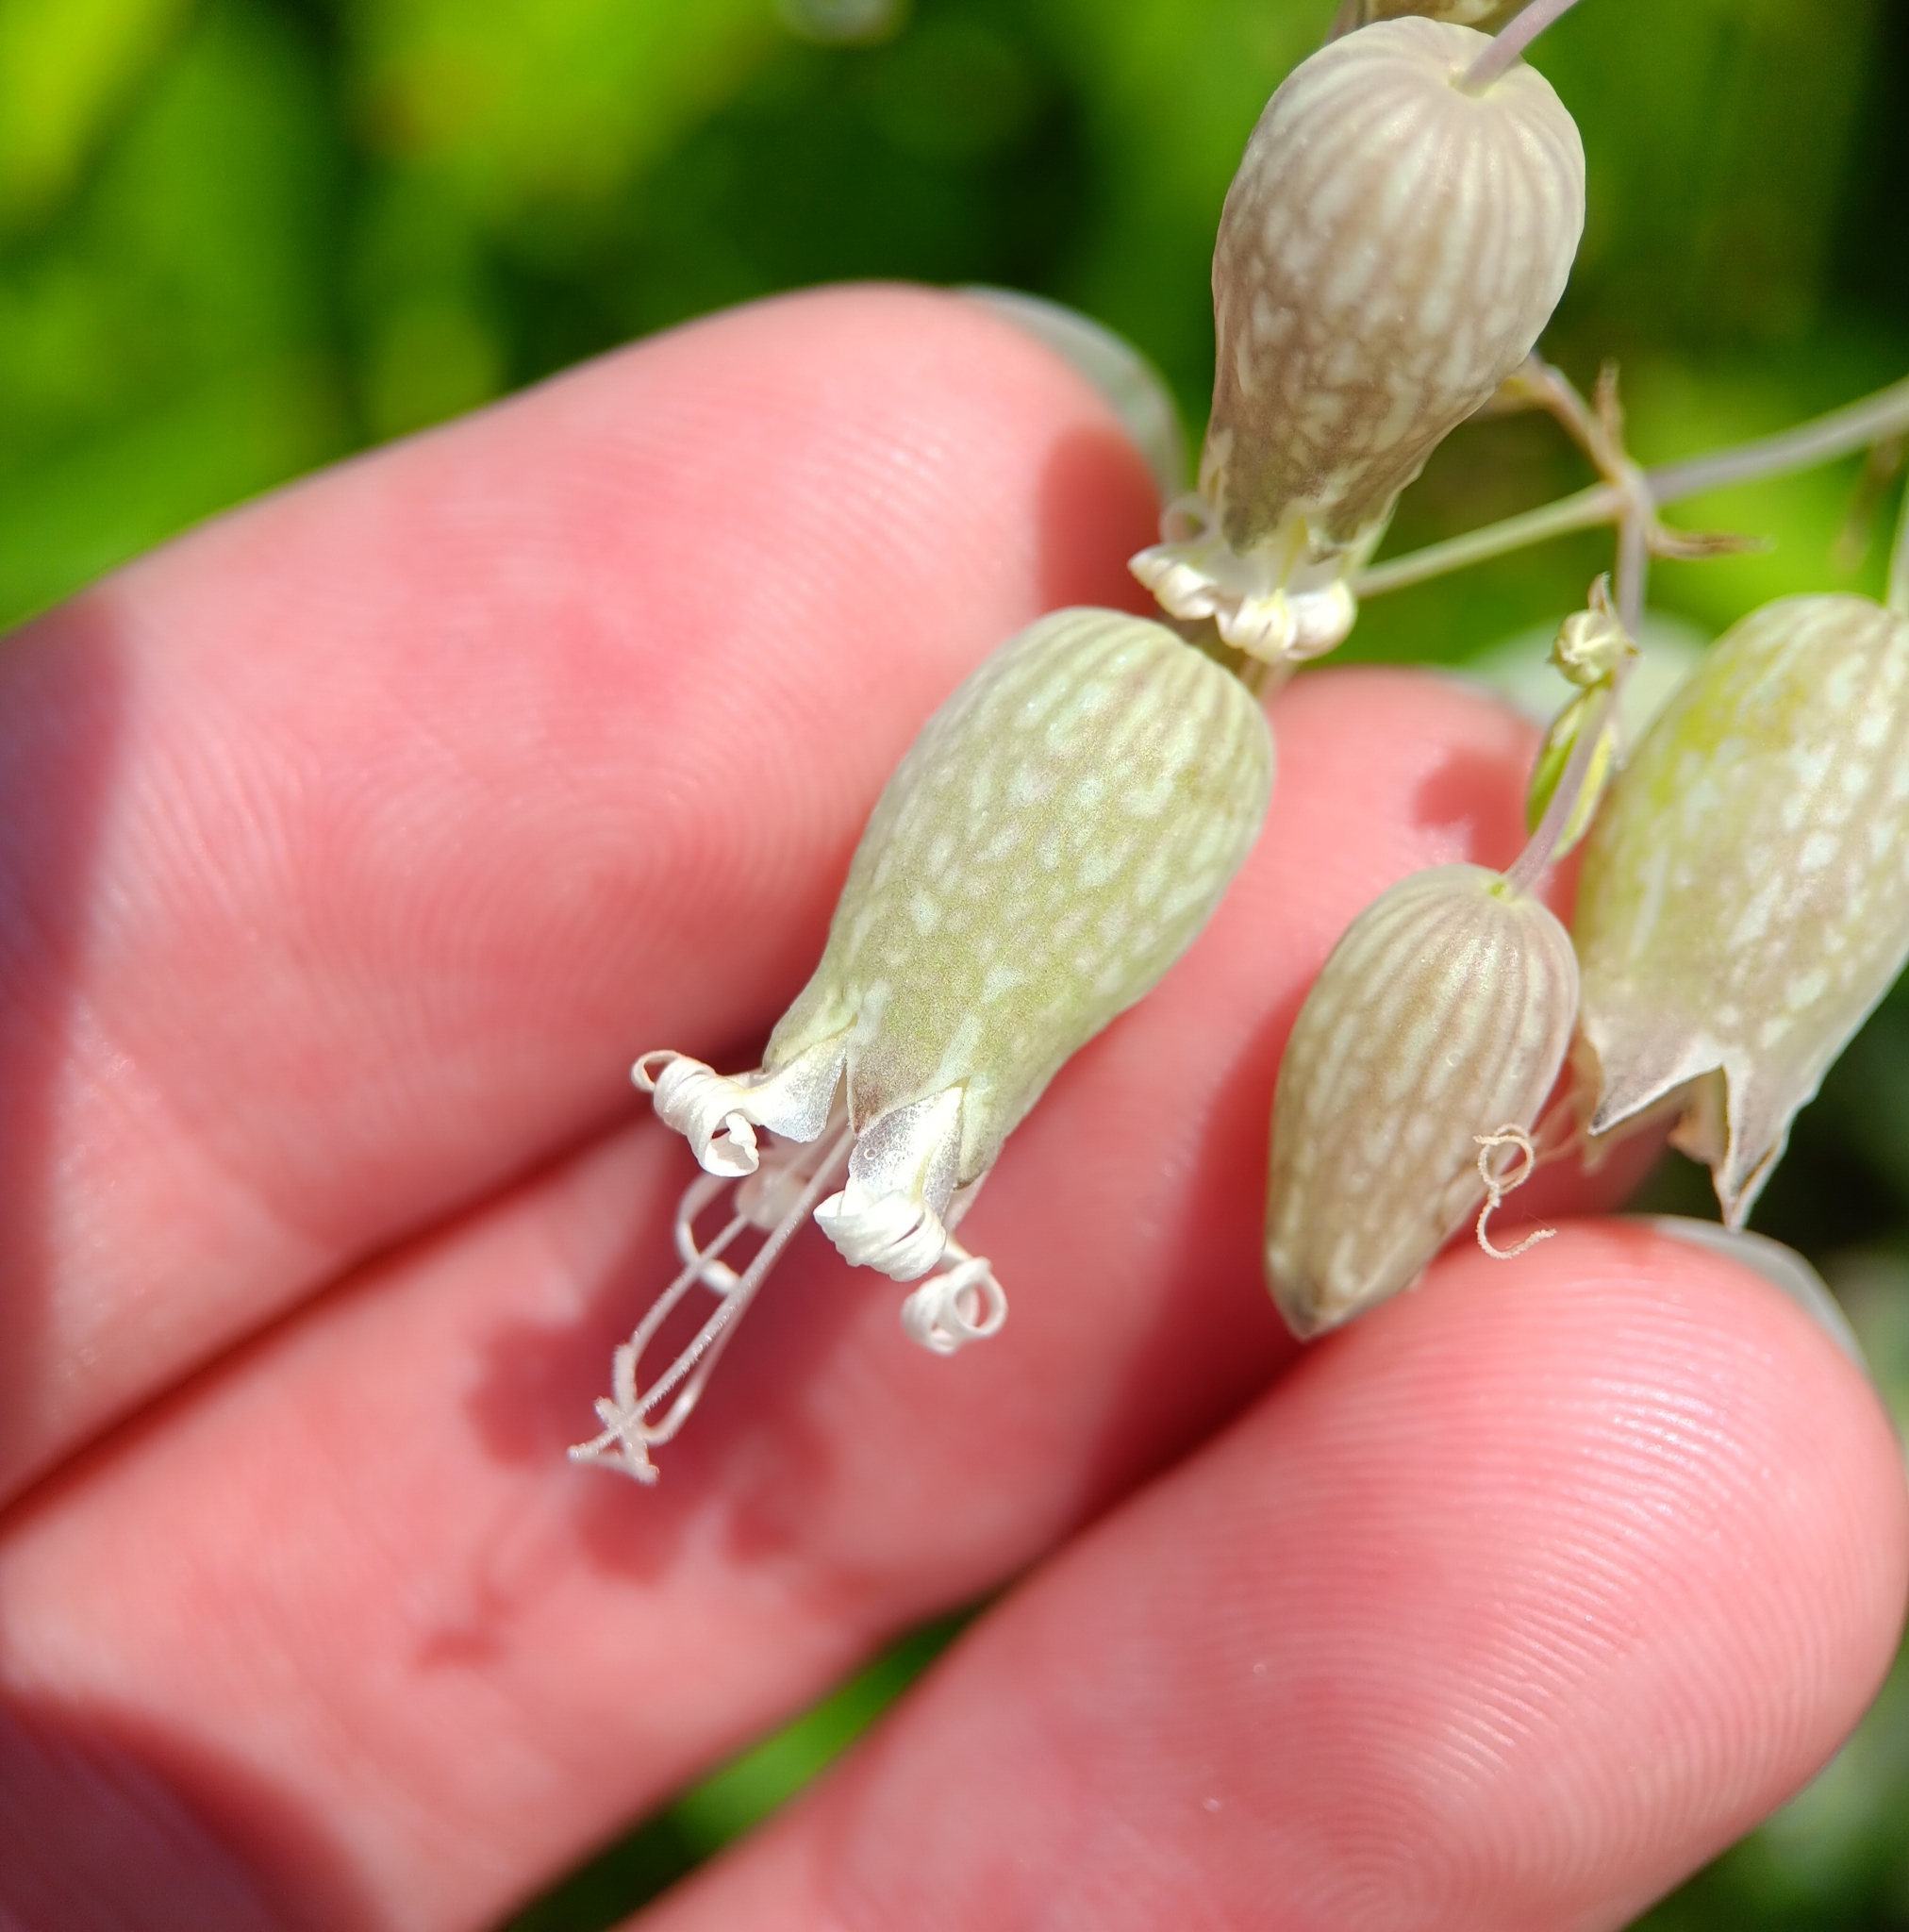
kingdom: Plantae
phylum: Tracheophyta
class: Magnoliopsida
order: Caryophyllales
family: Caryophyllaceae
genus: Silene
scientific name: Silene vulgaris
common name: Bladder campion
